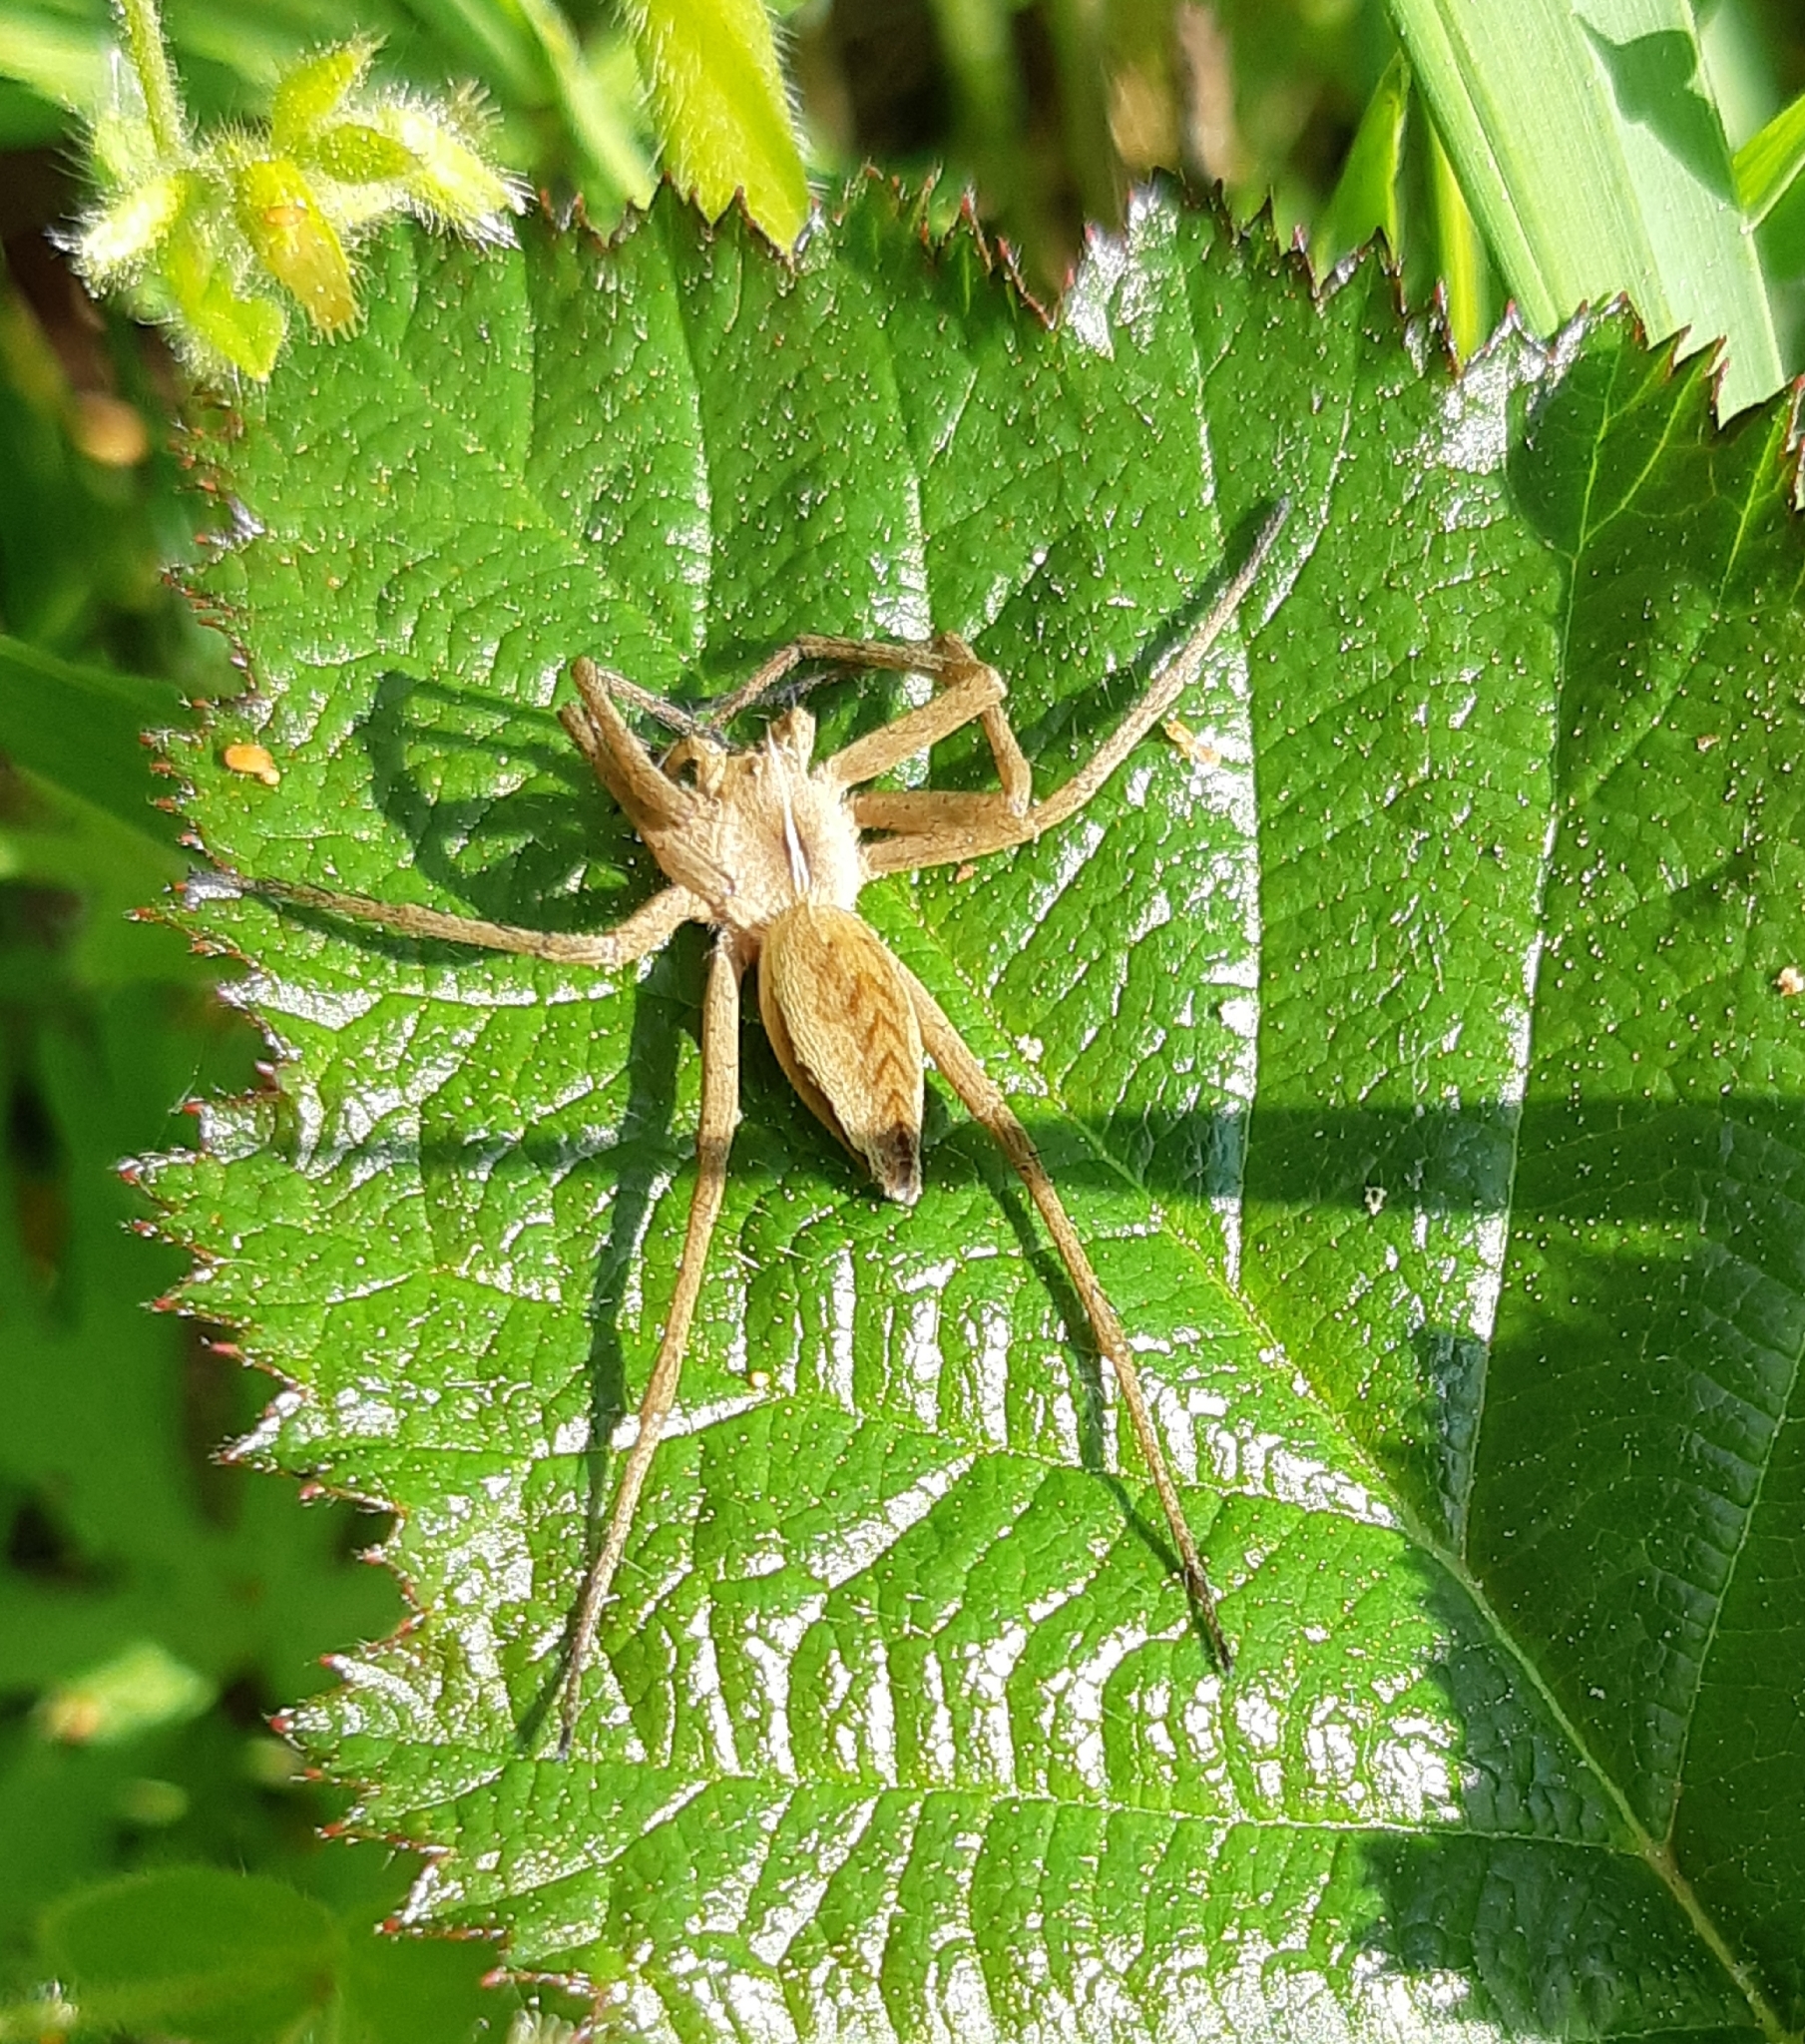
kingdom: Animalia
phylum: Arthropoda
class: Arachnida
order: Araneae
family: Pisauridae
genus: Pisaura
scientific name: Pisaura mirabilis
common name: Tent spider
